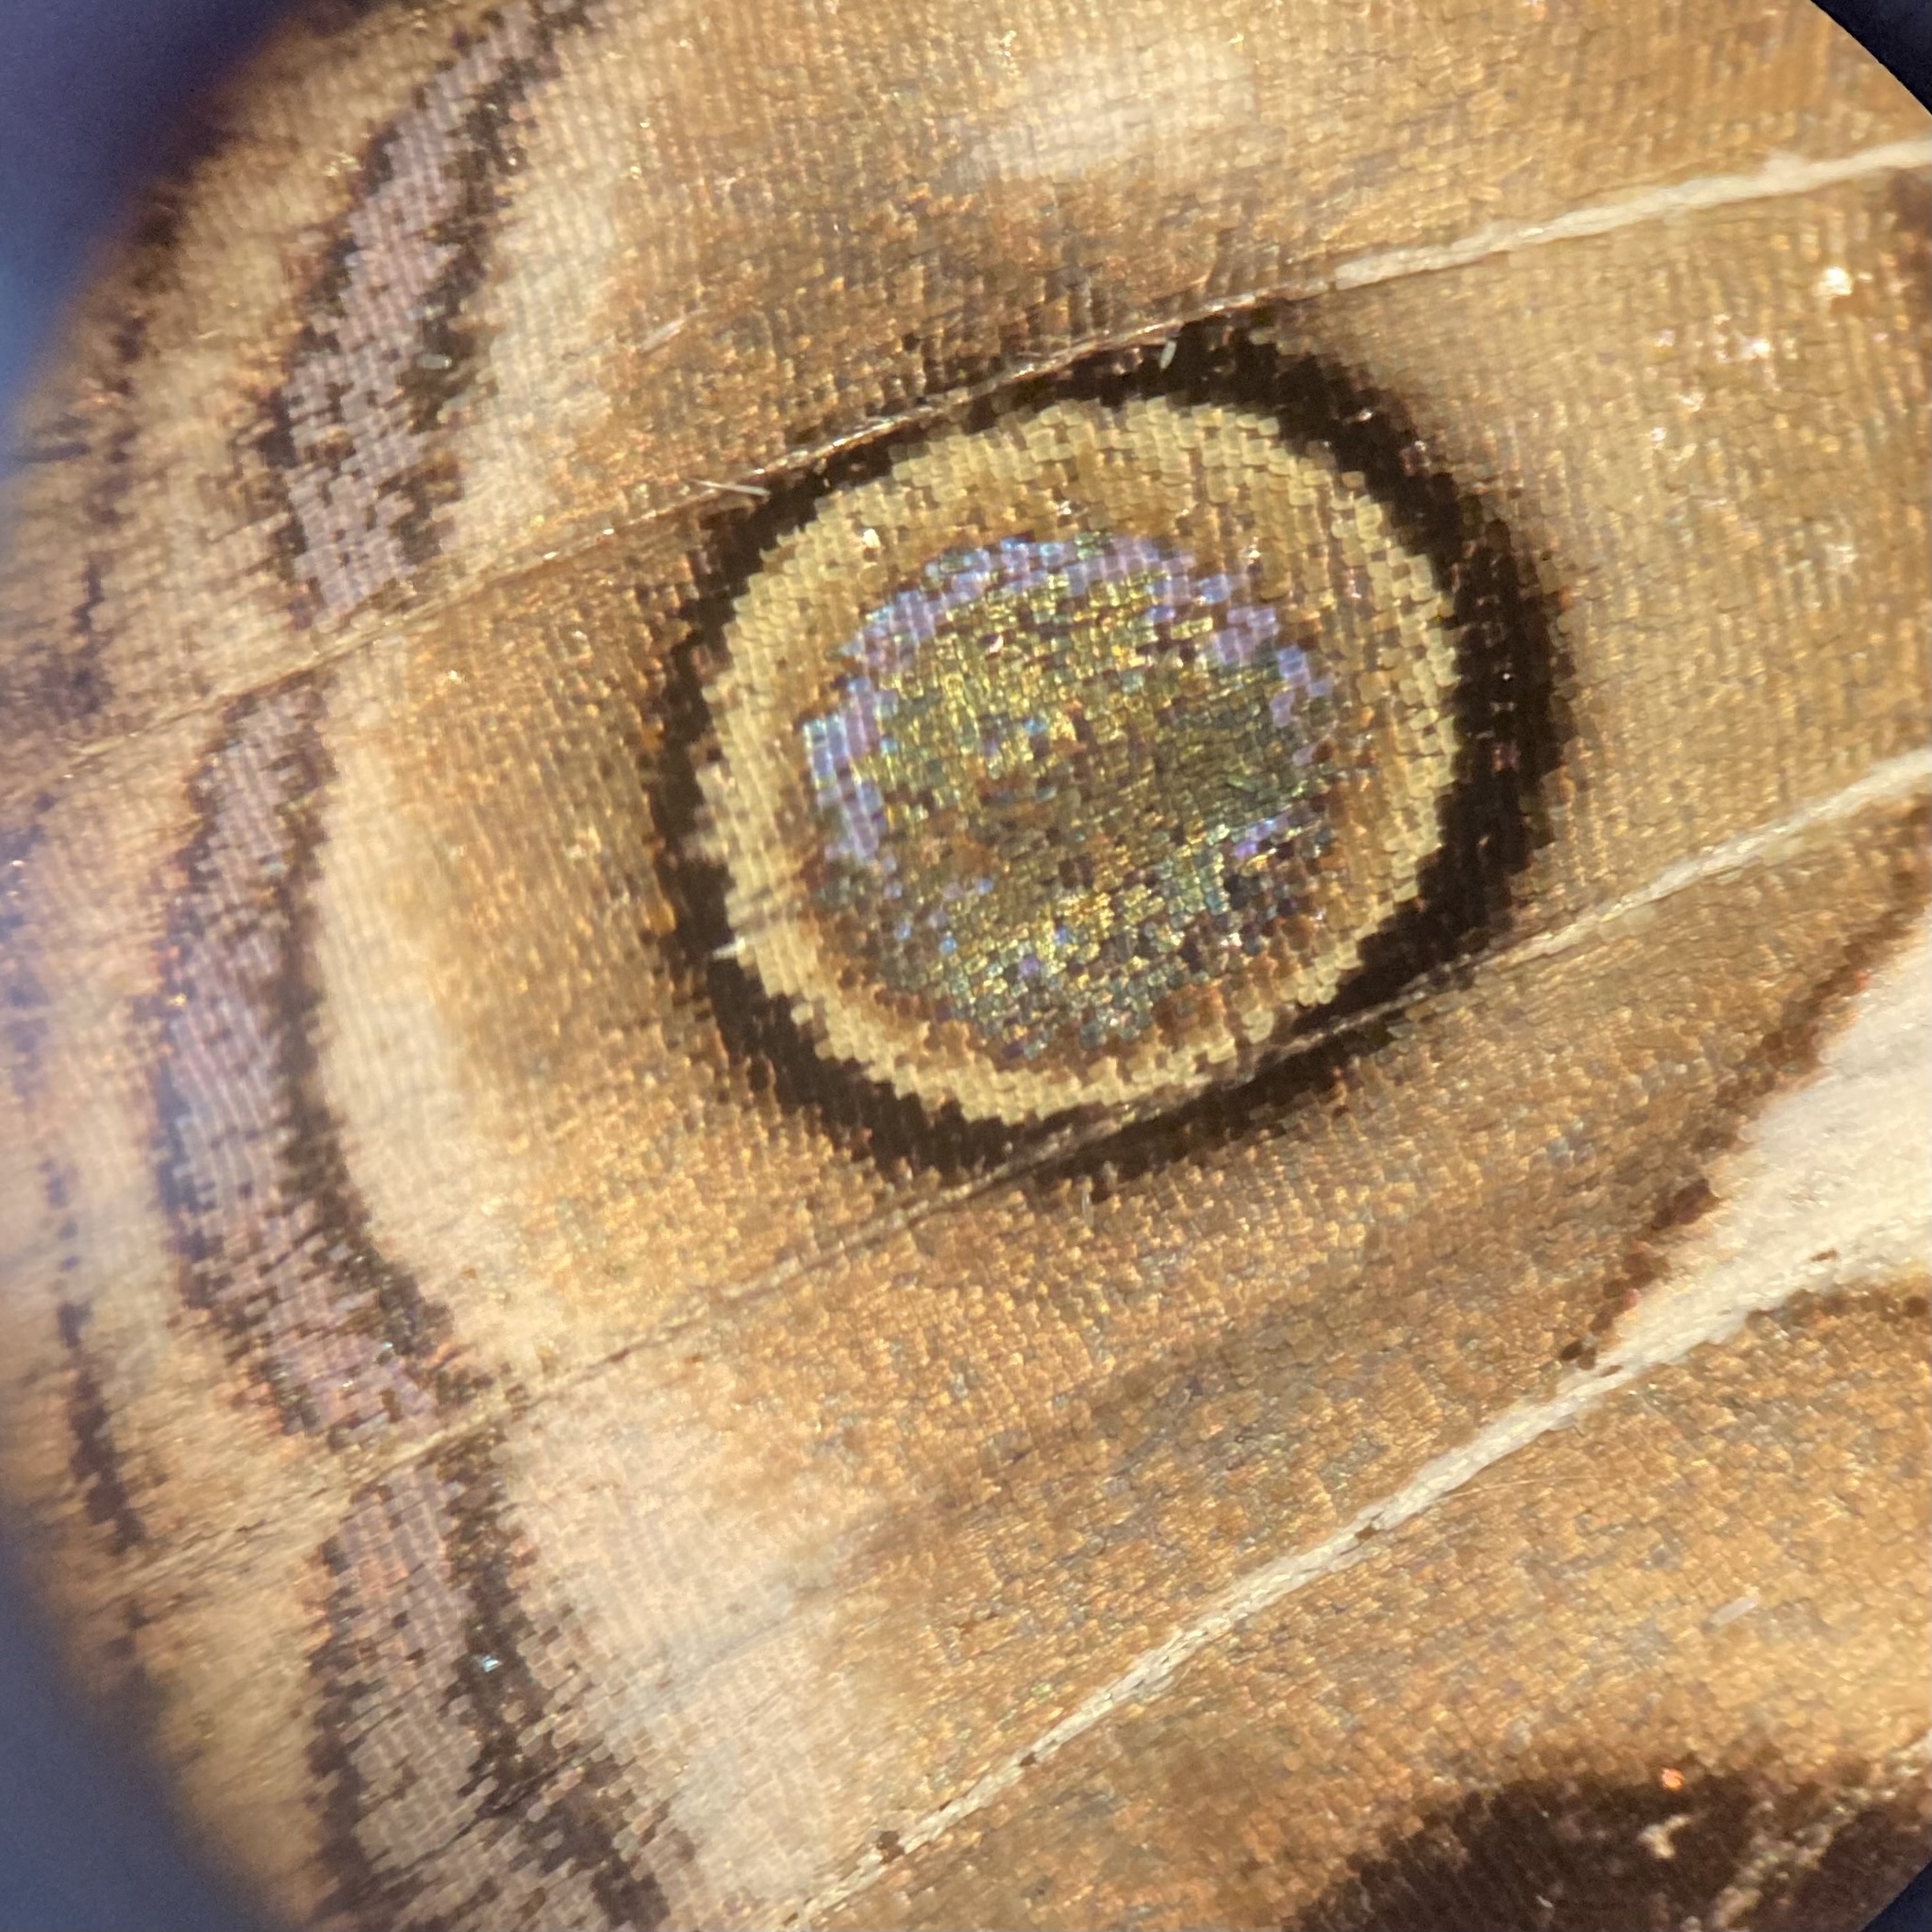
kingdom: Animalia
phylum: Arthropoda
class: Insecta
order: Lepidoptera
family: Nymphalidae
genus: Vanessa
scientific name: Vanessa virginiensis
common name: American lady
